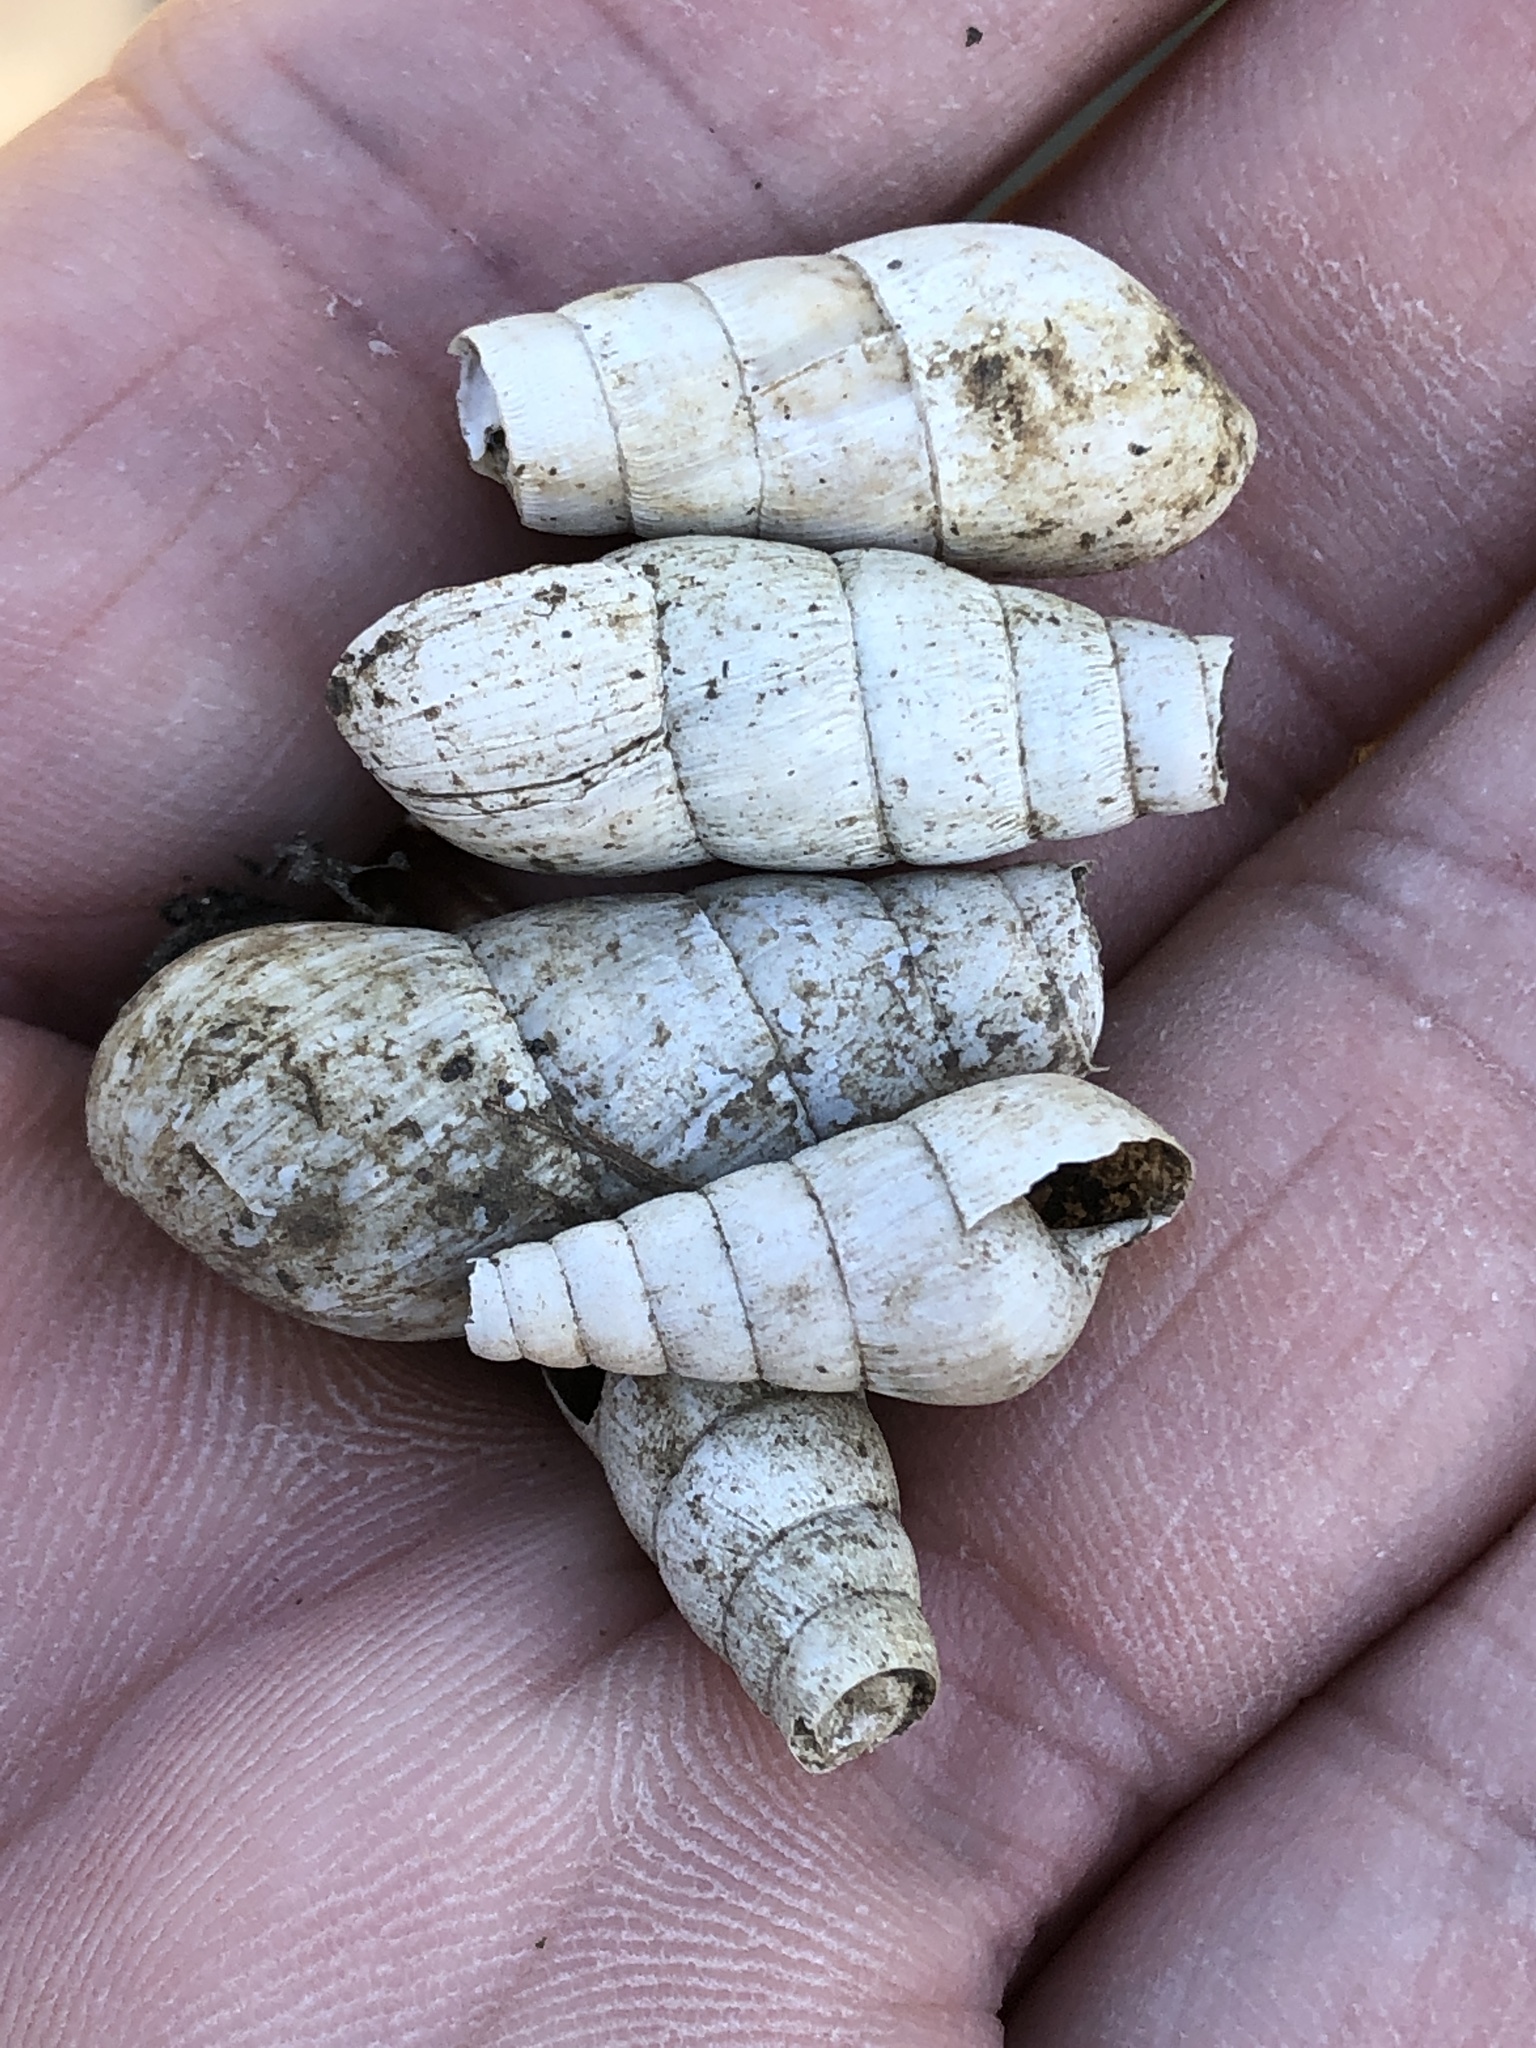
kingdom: Animalia
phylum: Mollusca
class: Gastropoda
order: Stylommatophora
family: Achatinidae
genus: Rumina
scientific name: Rumina decollata
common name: Decollate snail
